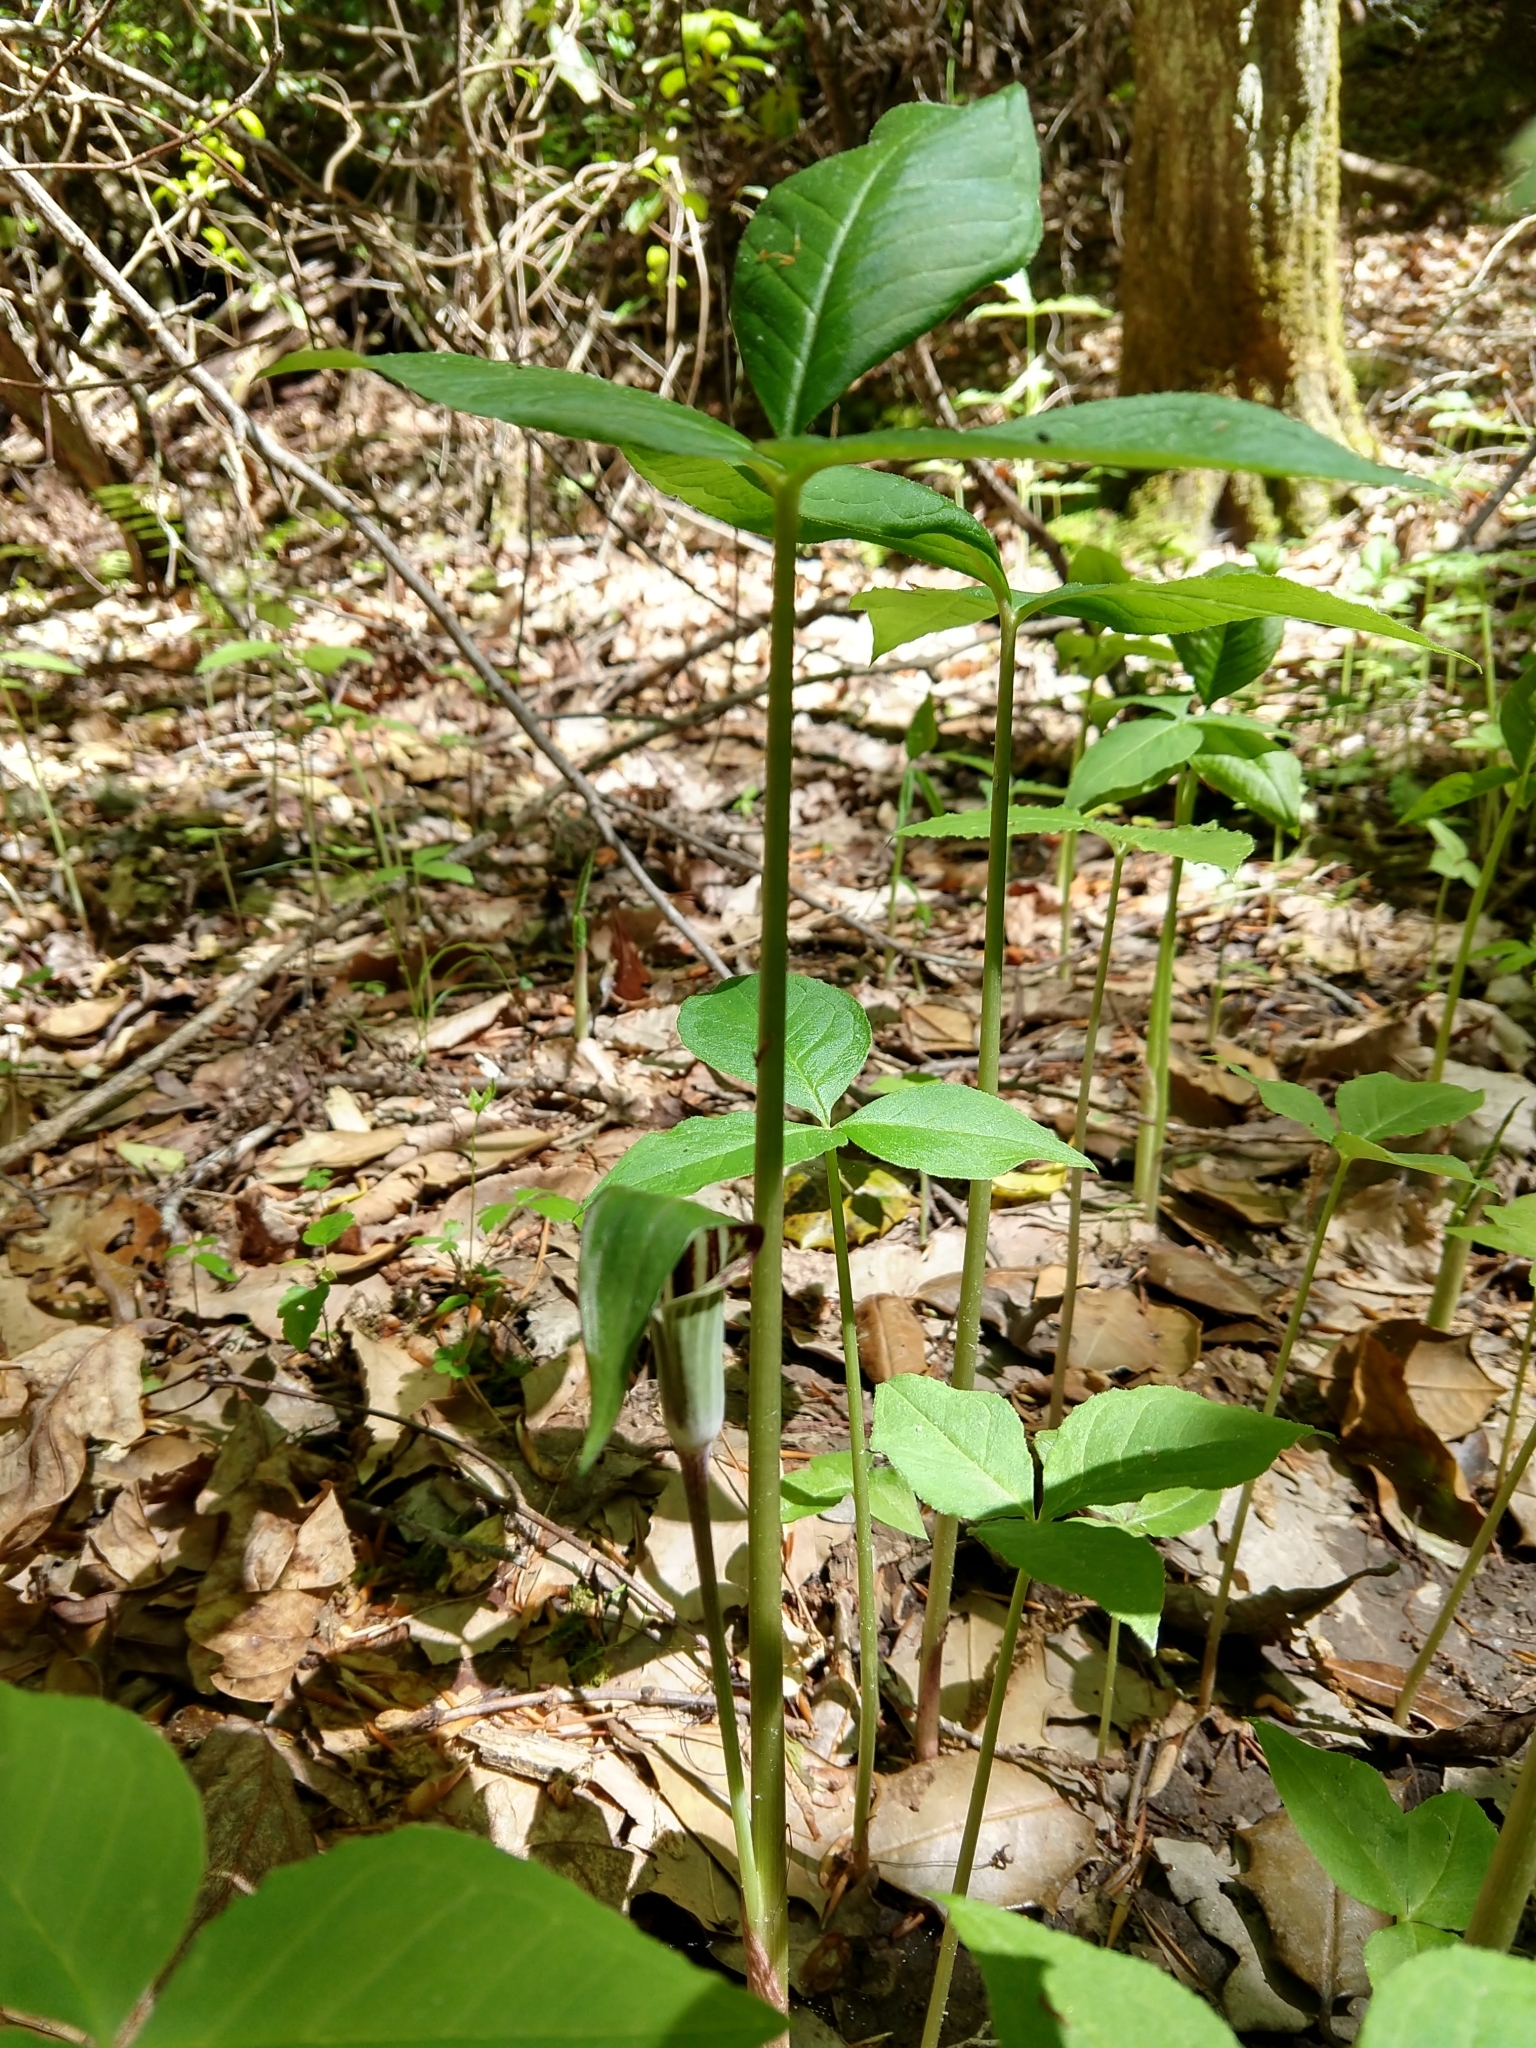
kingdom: Plantae
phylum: Tracheophyta
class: Liliopsida
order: Alismatales
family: Araceae
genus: Arisaema
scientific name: Arisaema triphyllum
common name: Jack-in-the-pulpit
